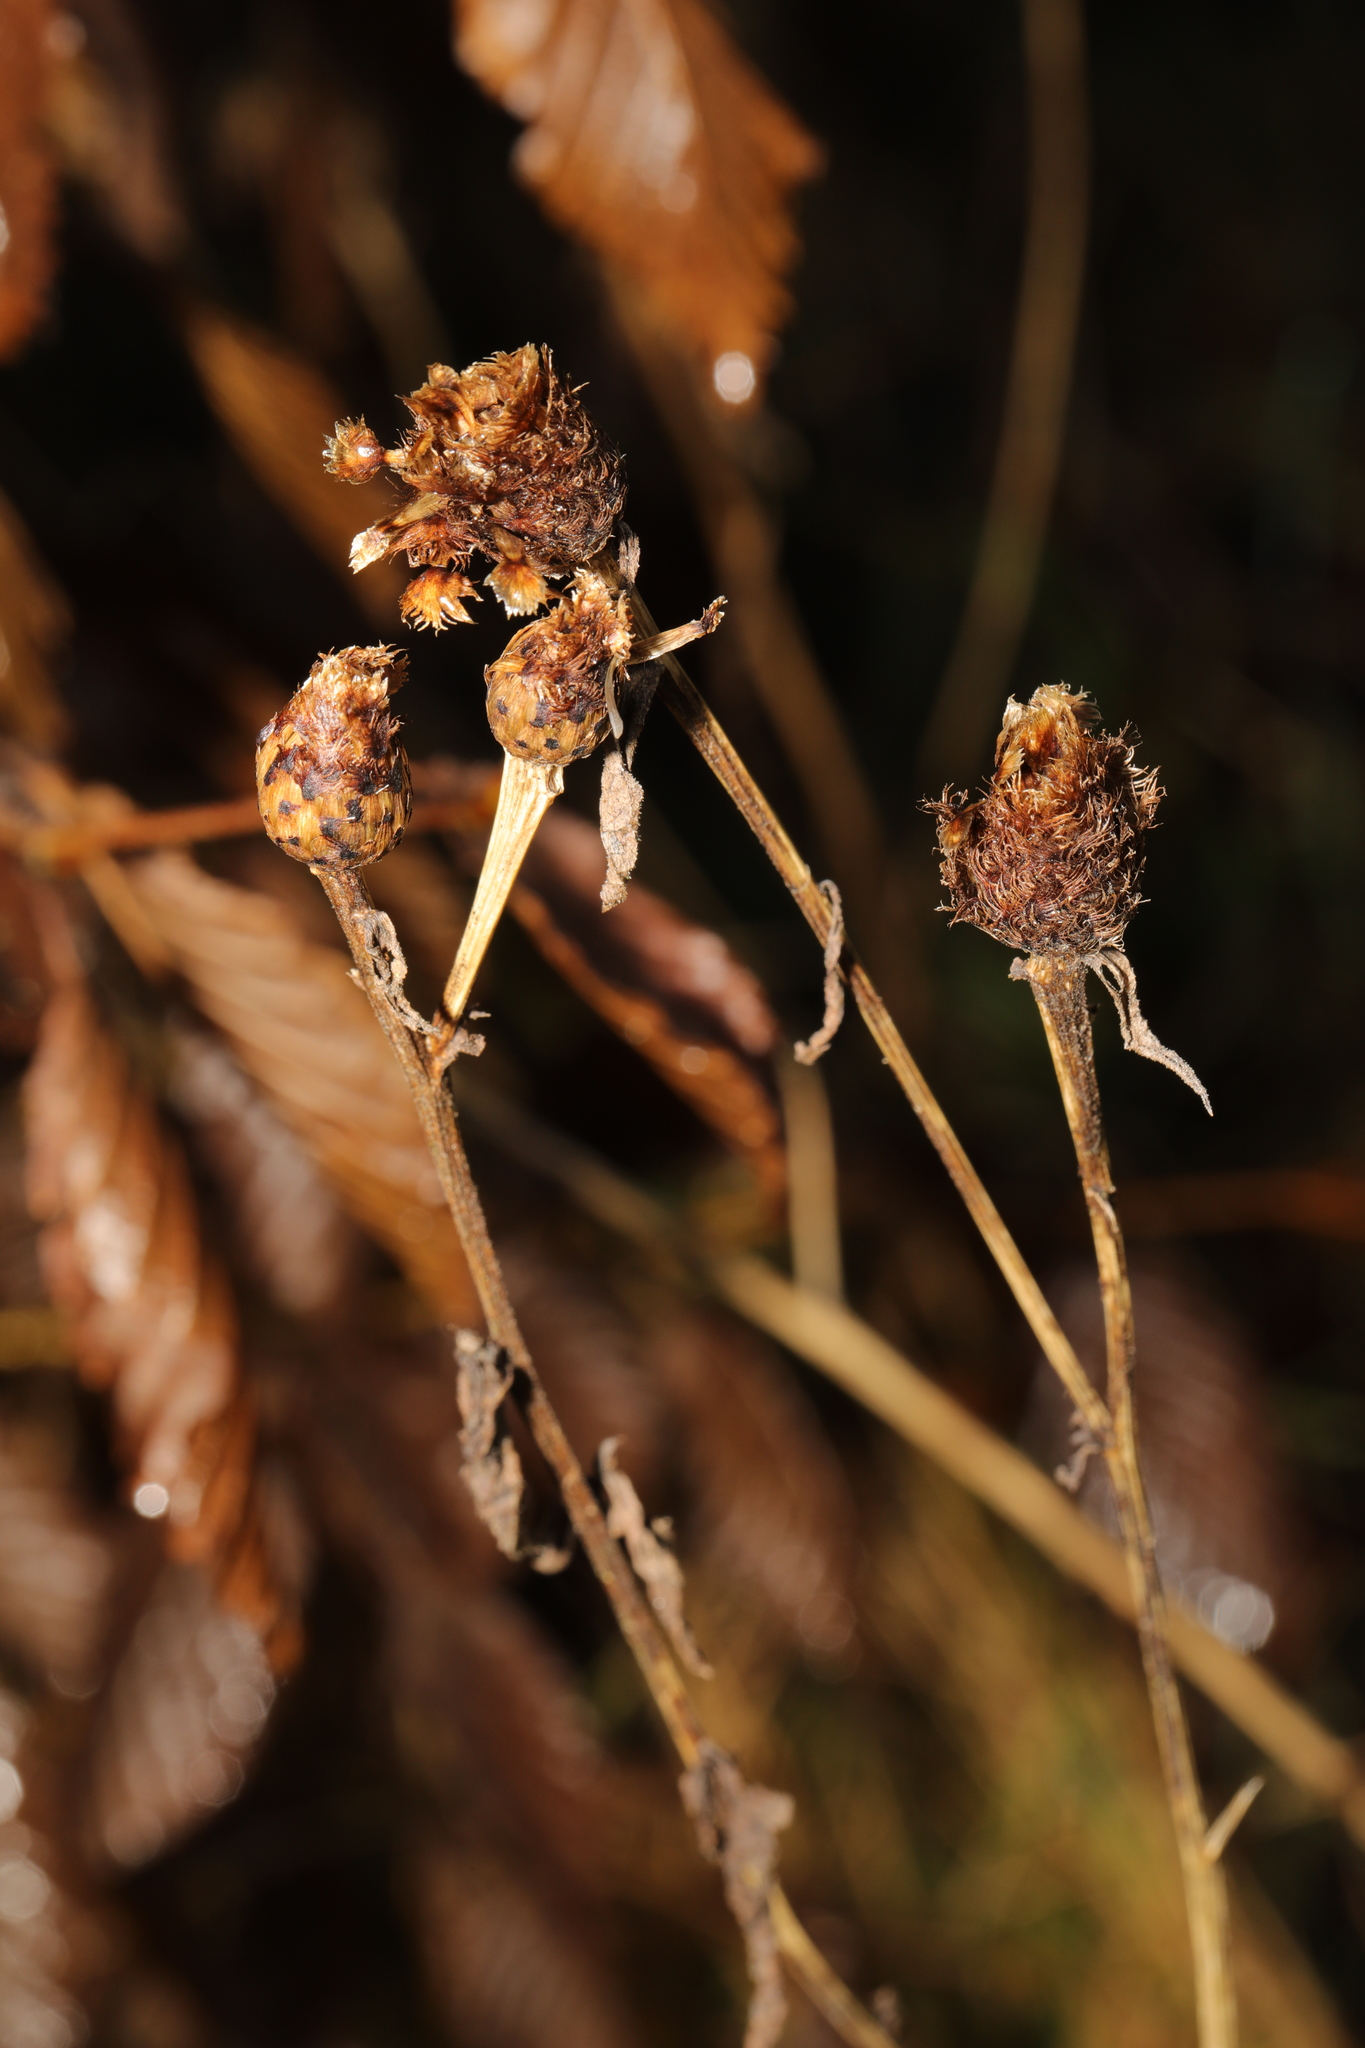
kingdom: Plantae
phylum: Tracheophyta
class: Magnoliopsida
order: Asterales
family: Asteraceae
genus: Centaurea
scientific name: Centaurea nigra
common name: Lesser knapweed
